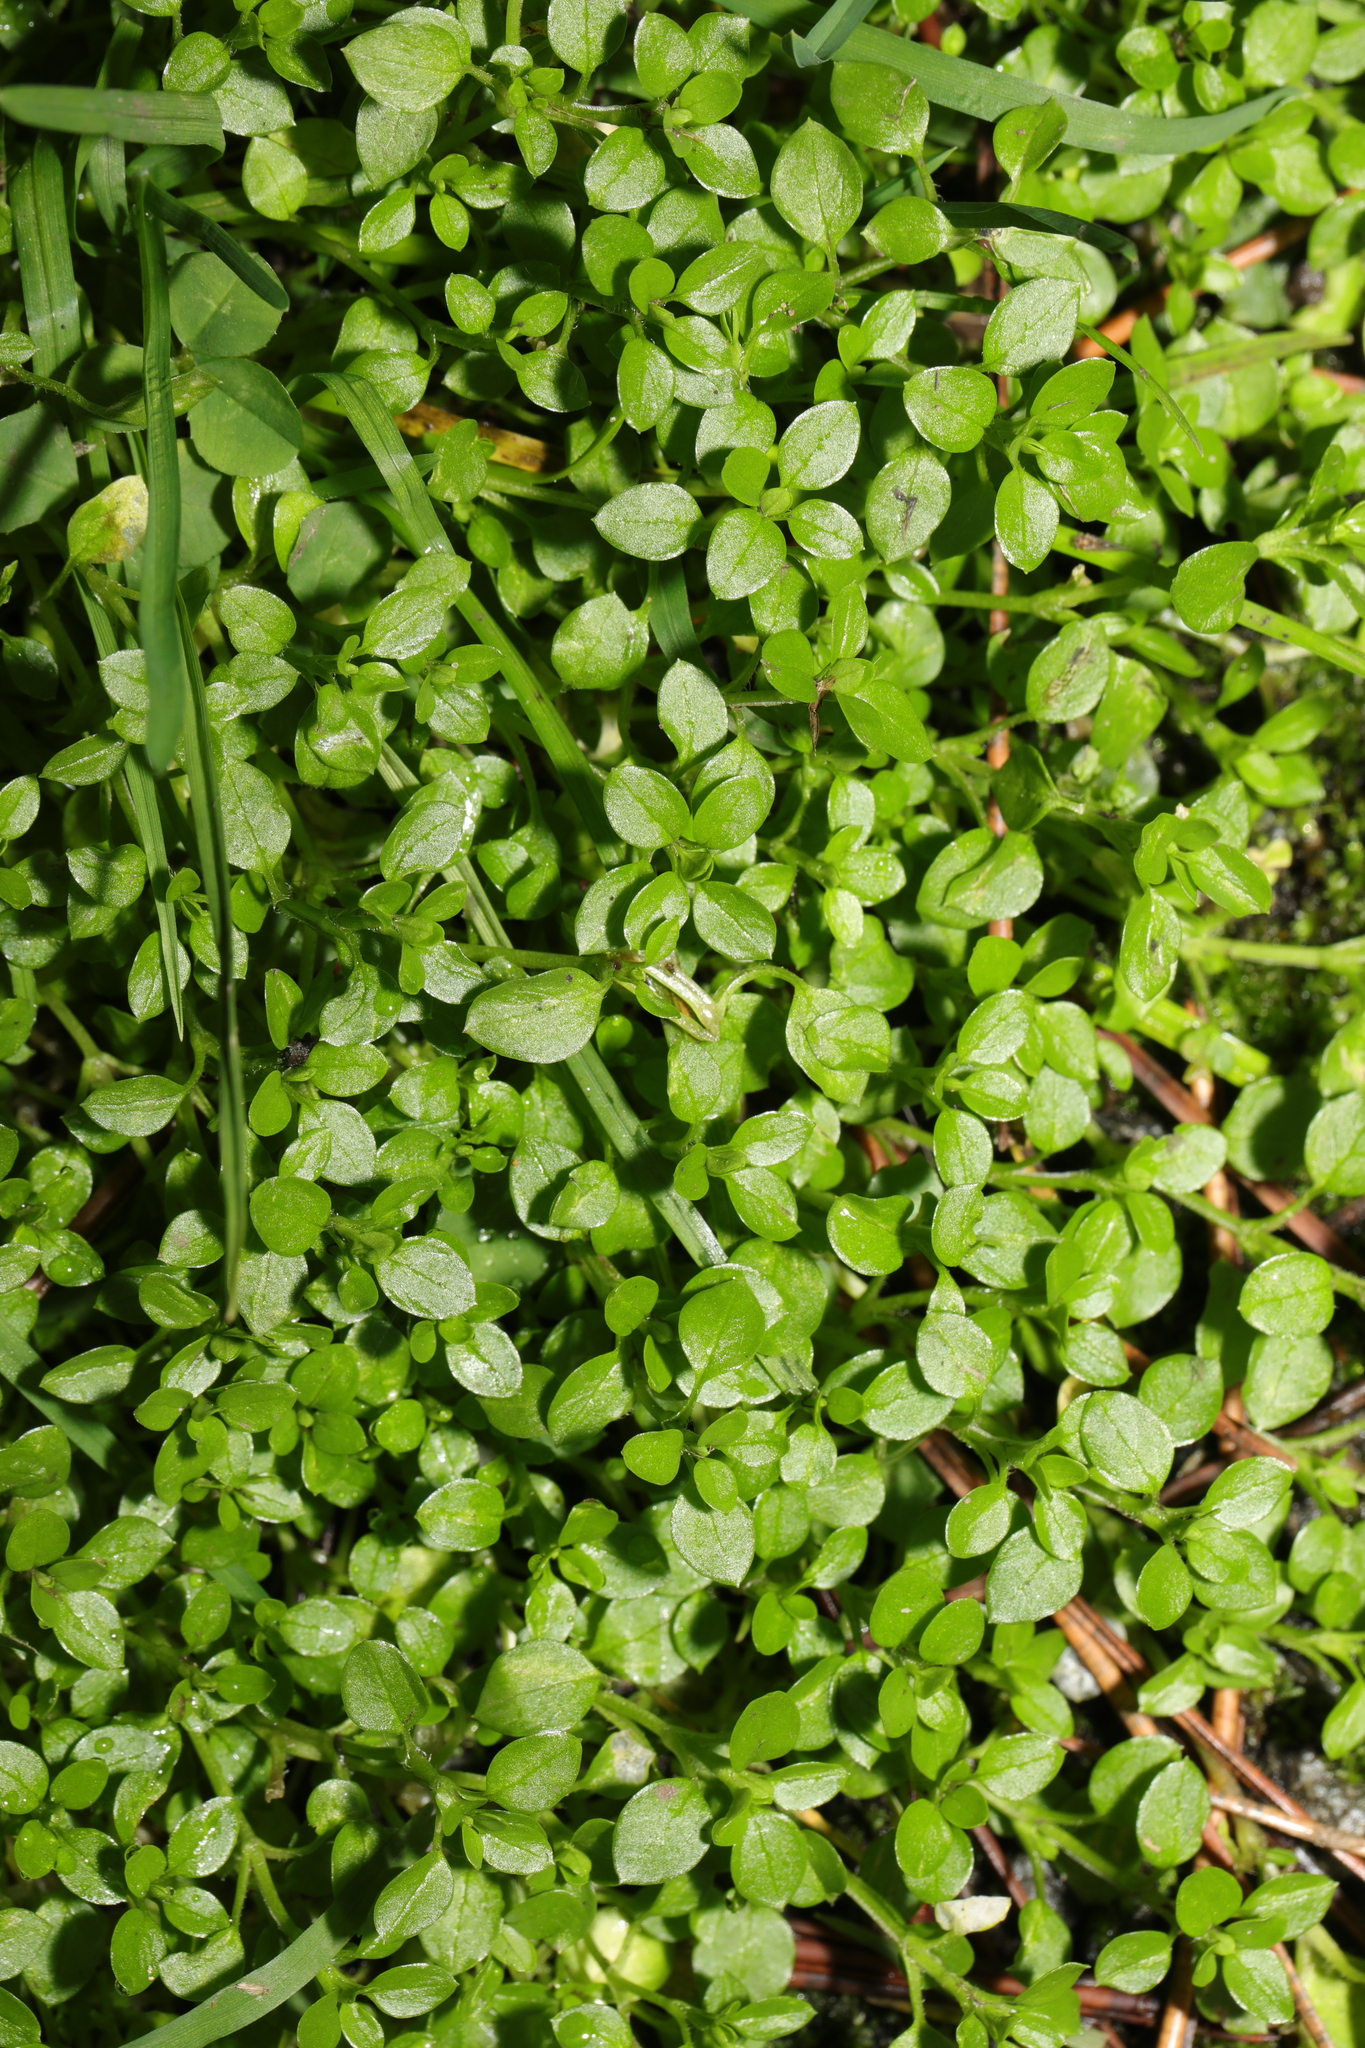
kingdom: Plantae
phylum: Tracheophyta
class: Magnoliopsida
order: Caryophyllales
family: Caryophyllaceae
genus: Stellaria
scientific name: Stellaria media
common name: Common chickweed
